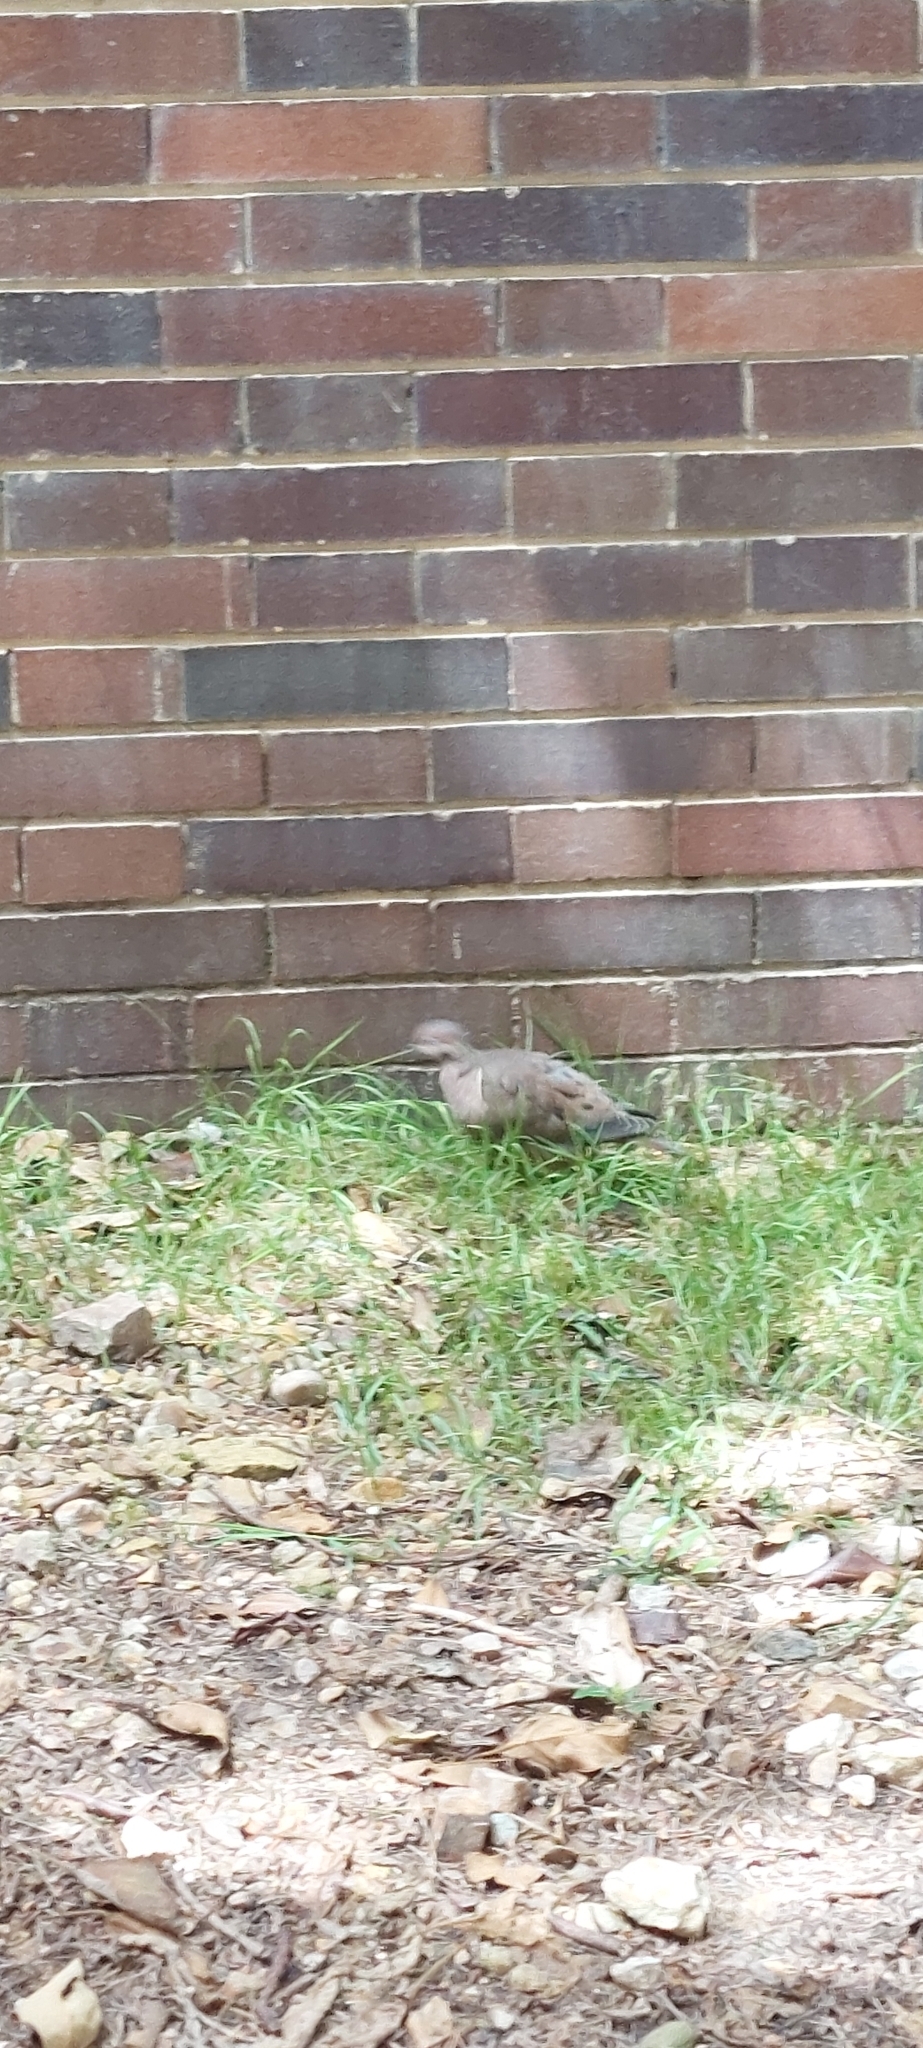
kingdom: Animalia
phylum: Chordata
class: Aves
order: Columbiformes
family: Columbidae
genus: Zenaida
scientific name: Zenaida auriculata
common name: Eared dove
